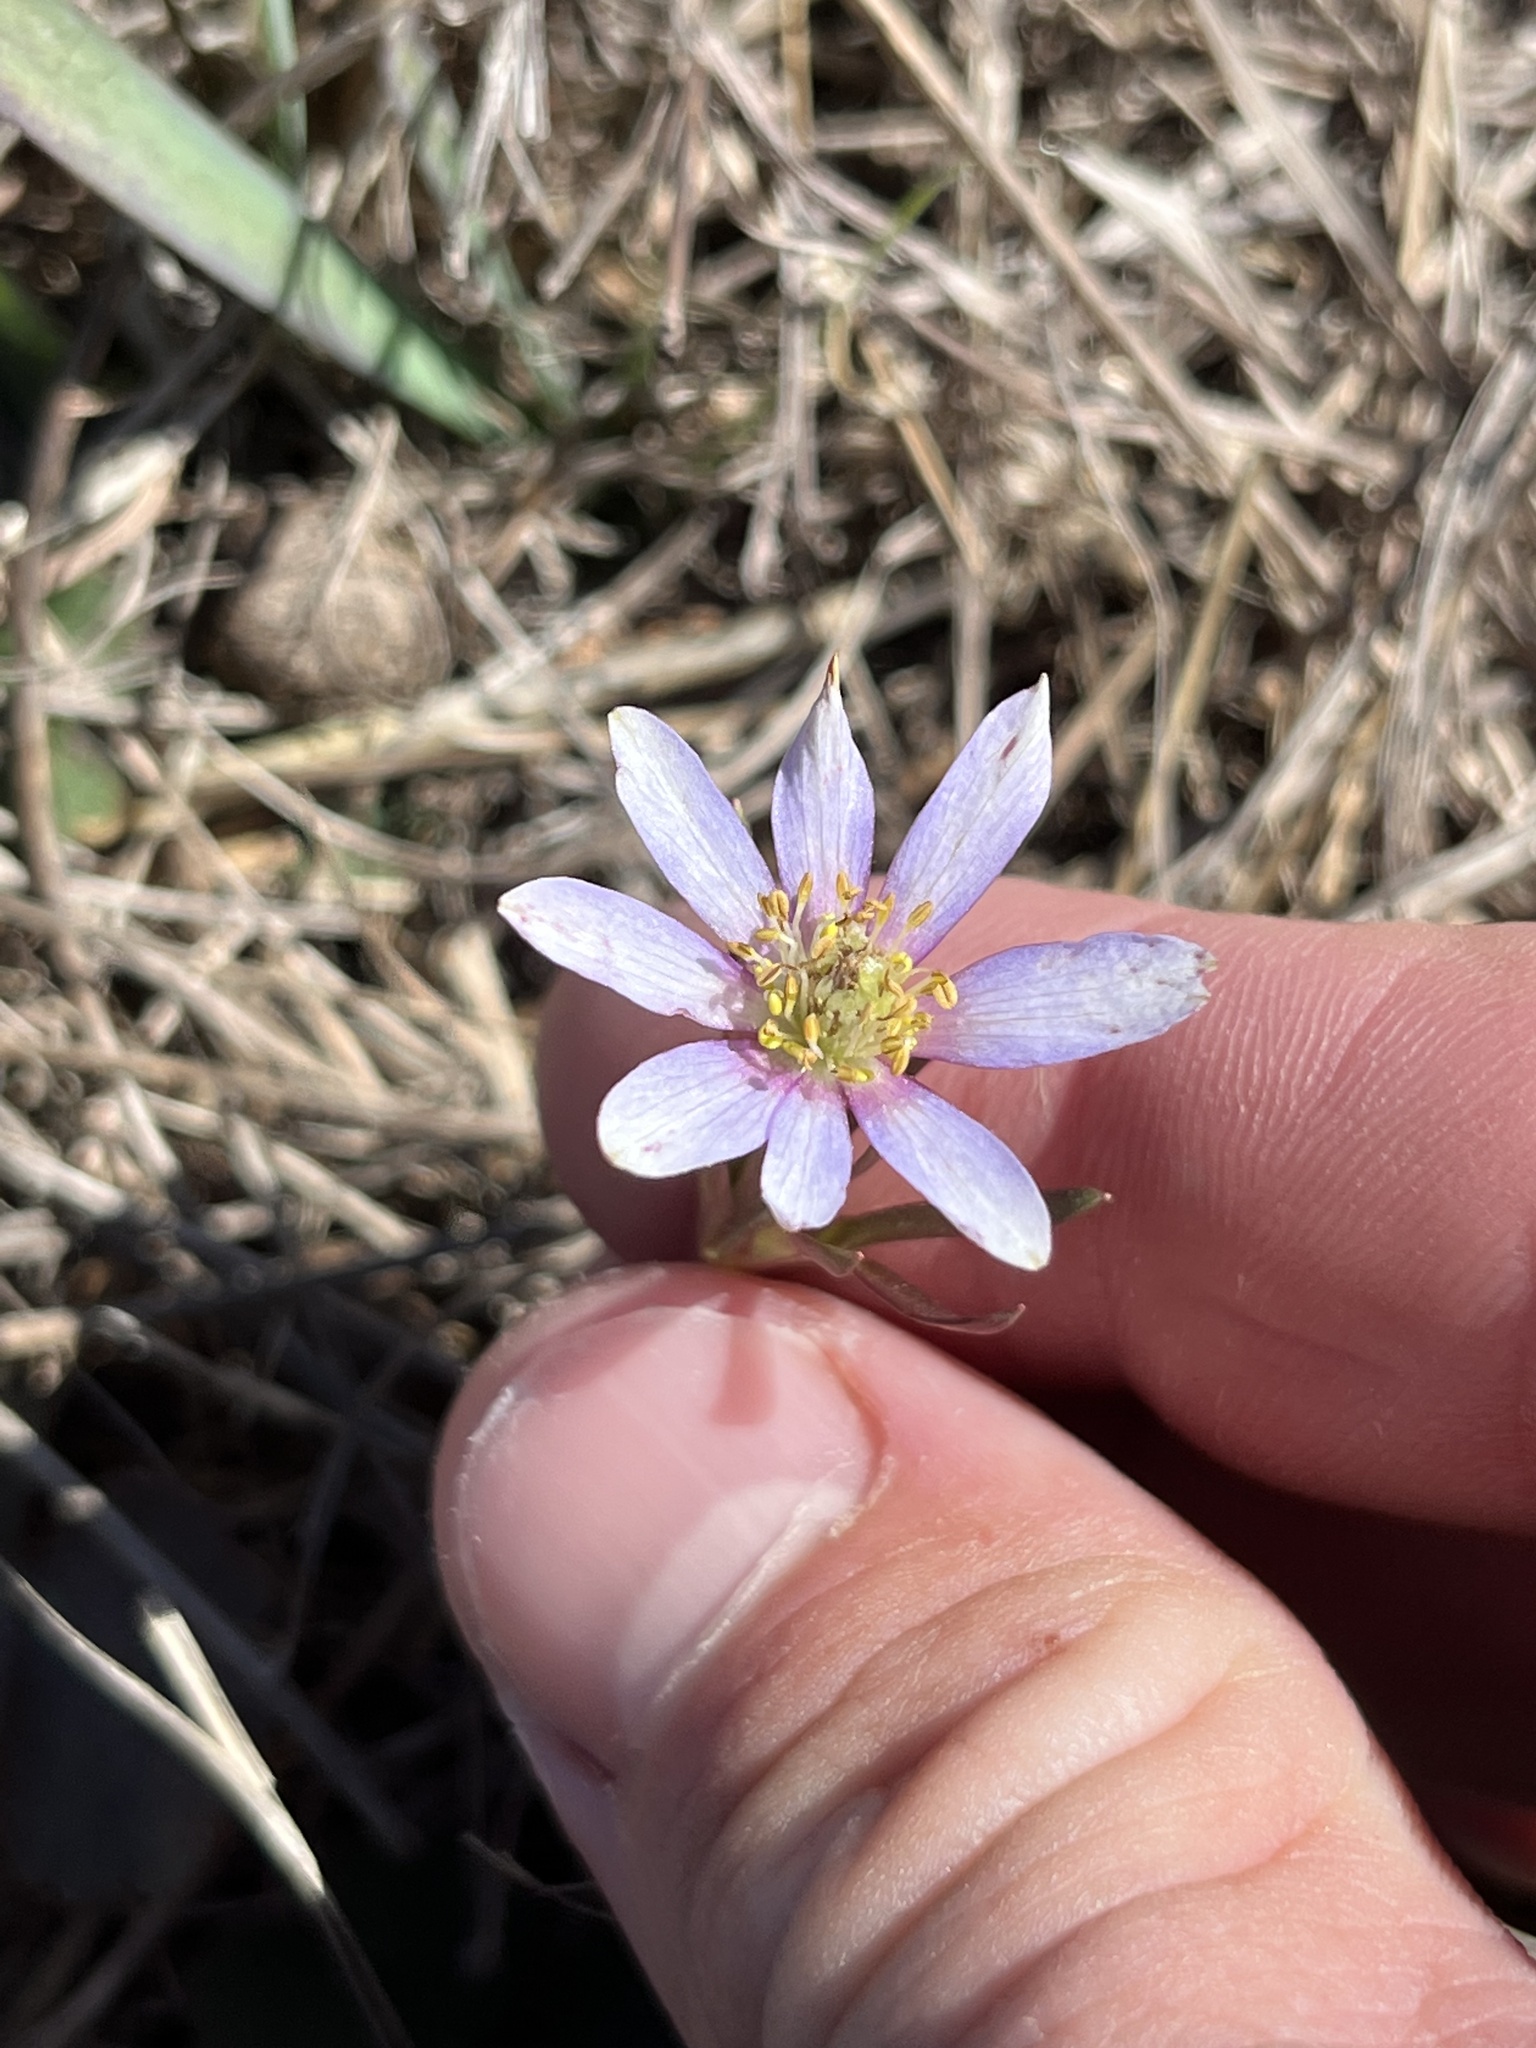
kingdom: Plantae
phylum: Tracheophyta
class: Magnoliopsida
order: Ranunculales
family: Ranunculaceae
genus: Anemone
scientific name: Anemone berlandieri
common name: Ten-petal anemone
